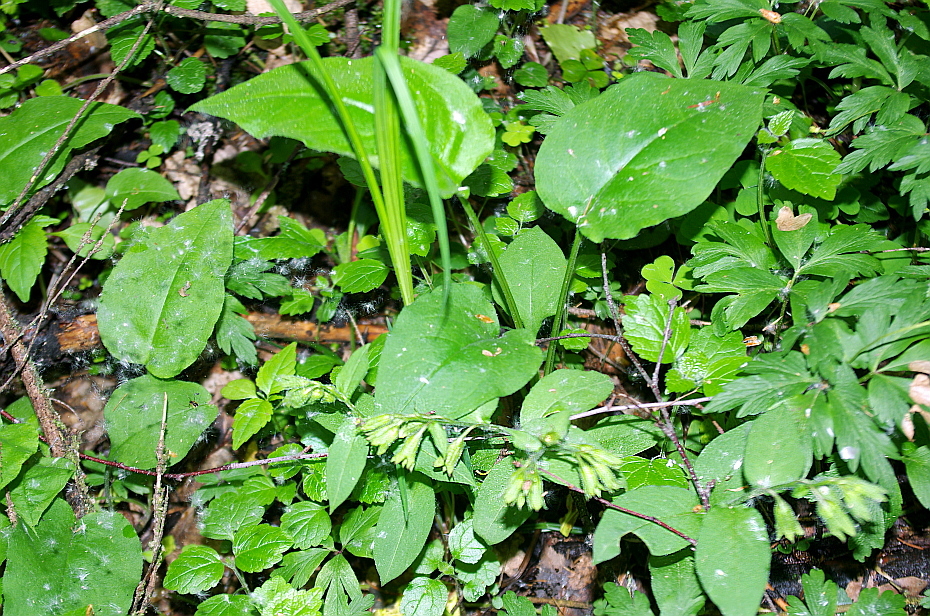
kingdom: Plantae
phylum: Tracheophyta
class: Magnoliopsida
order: Boraginales
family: Boraginaceae
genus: Pulmonaria
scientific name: Pulmonaria obscura
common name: Suffolk lungwort
